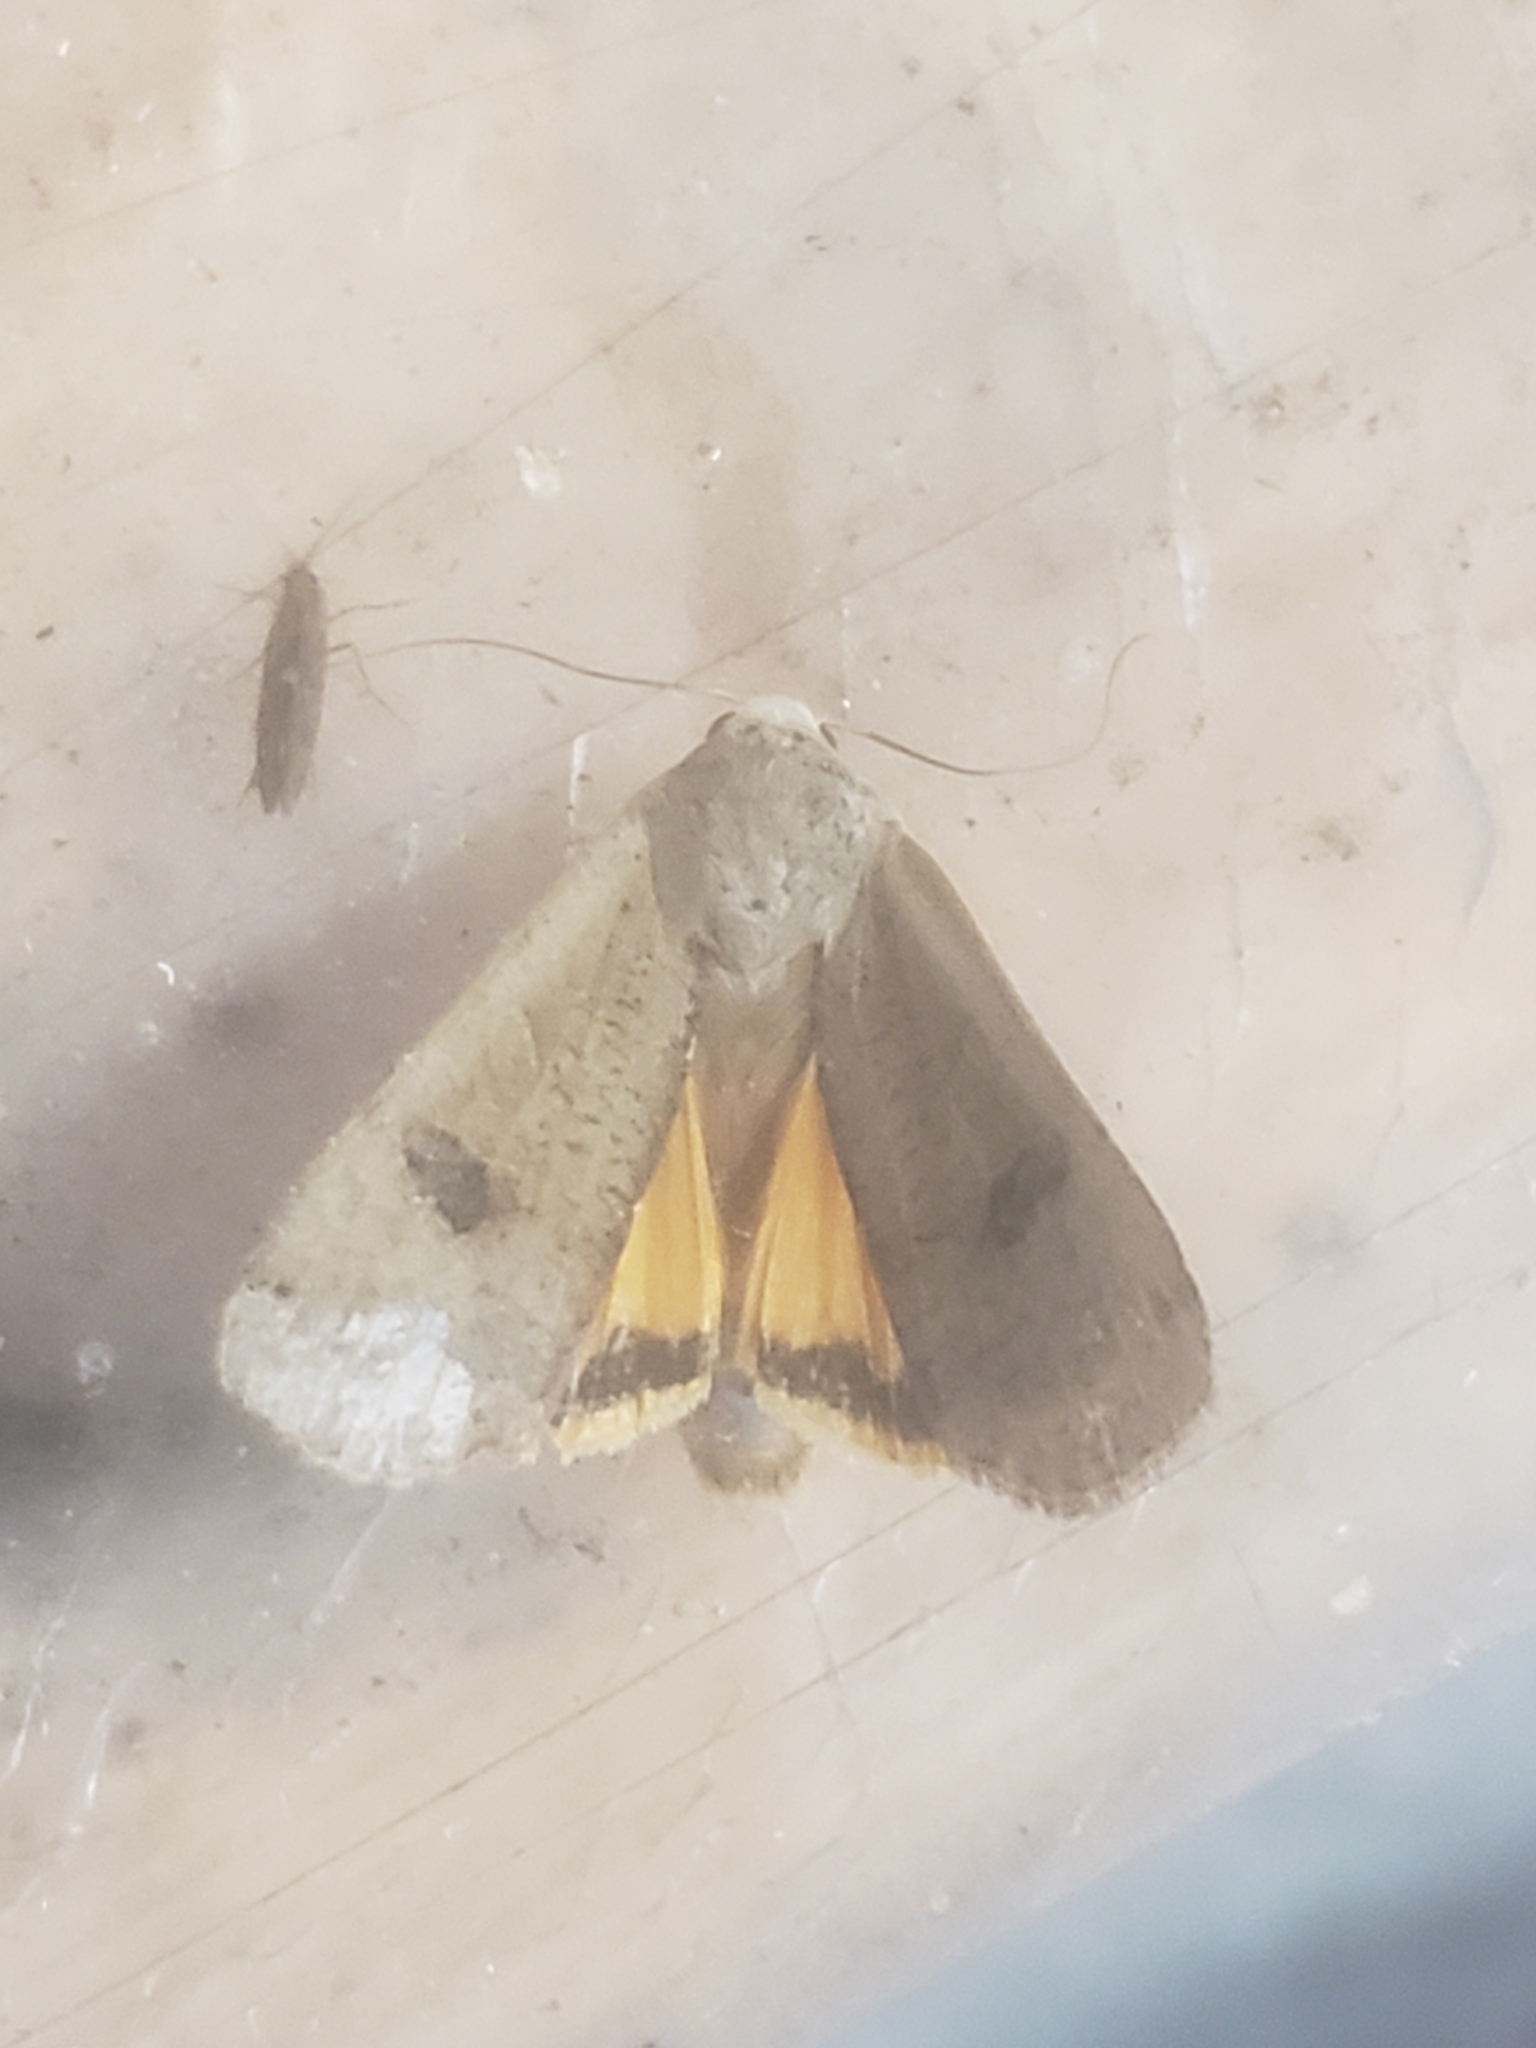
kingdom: Animalia
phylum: Arthropoda
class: Insecta
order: Lepidoptera
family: Noctuidae
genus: Noctua
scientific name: Noctua pronuba
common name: Large yellow underwing
